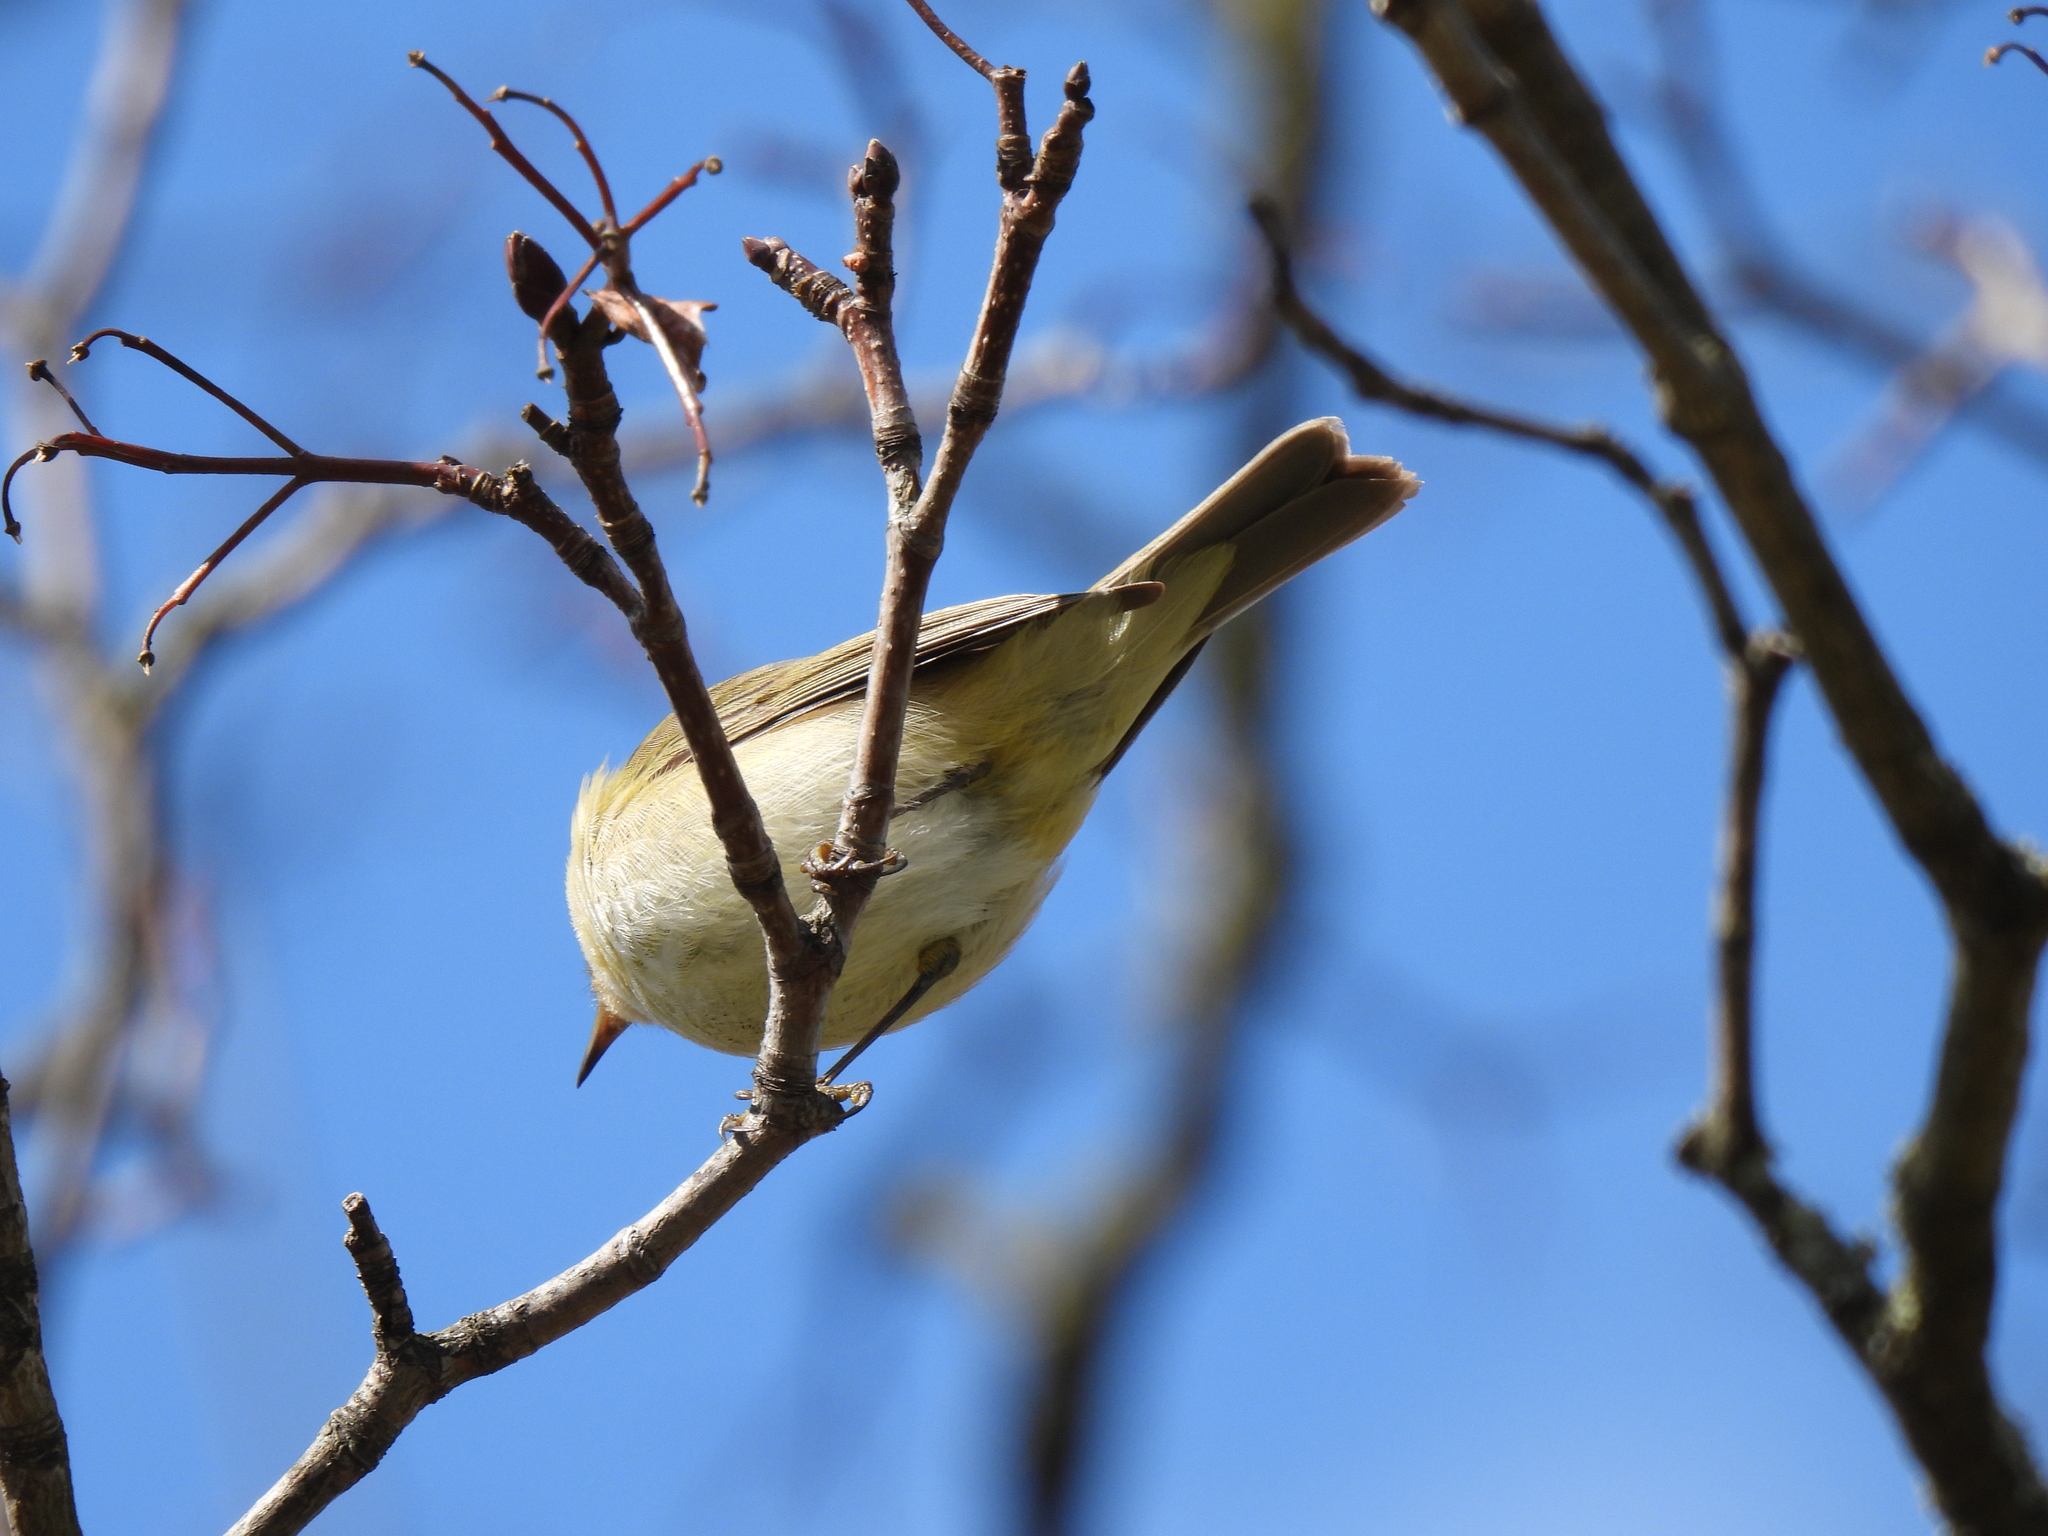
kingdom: Animalia
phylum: Chordata
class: Aves
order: Passeriformes
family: Phylloscopidae
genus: Phylloscopus
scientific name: Phylloscopus collybita
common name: Common chiffchaff
